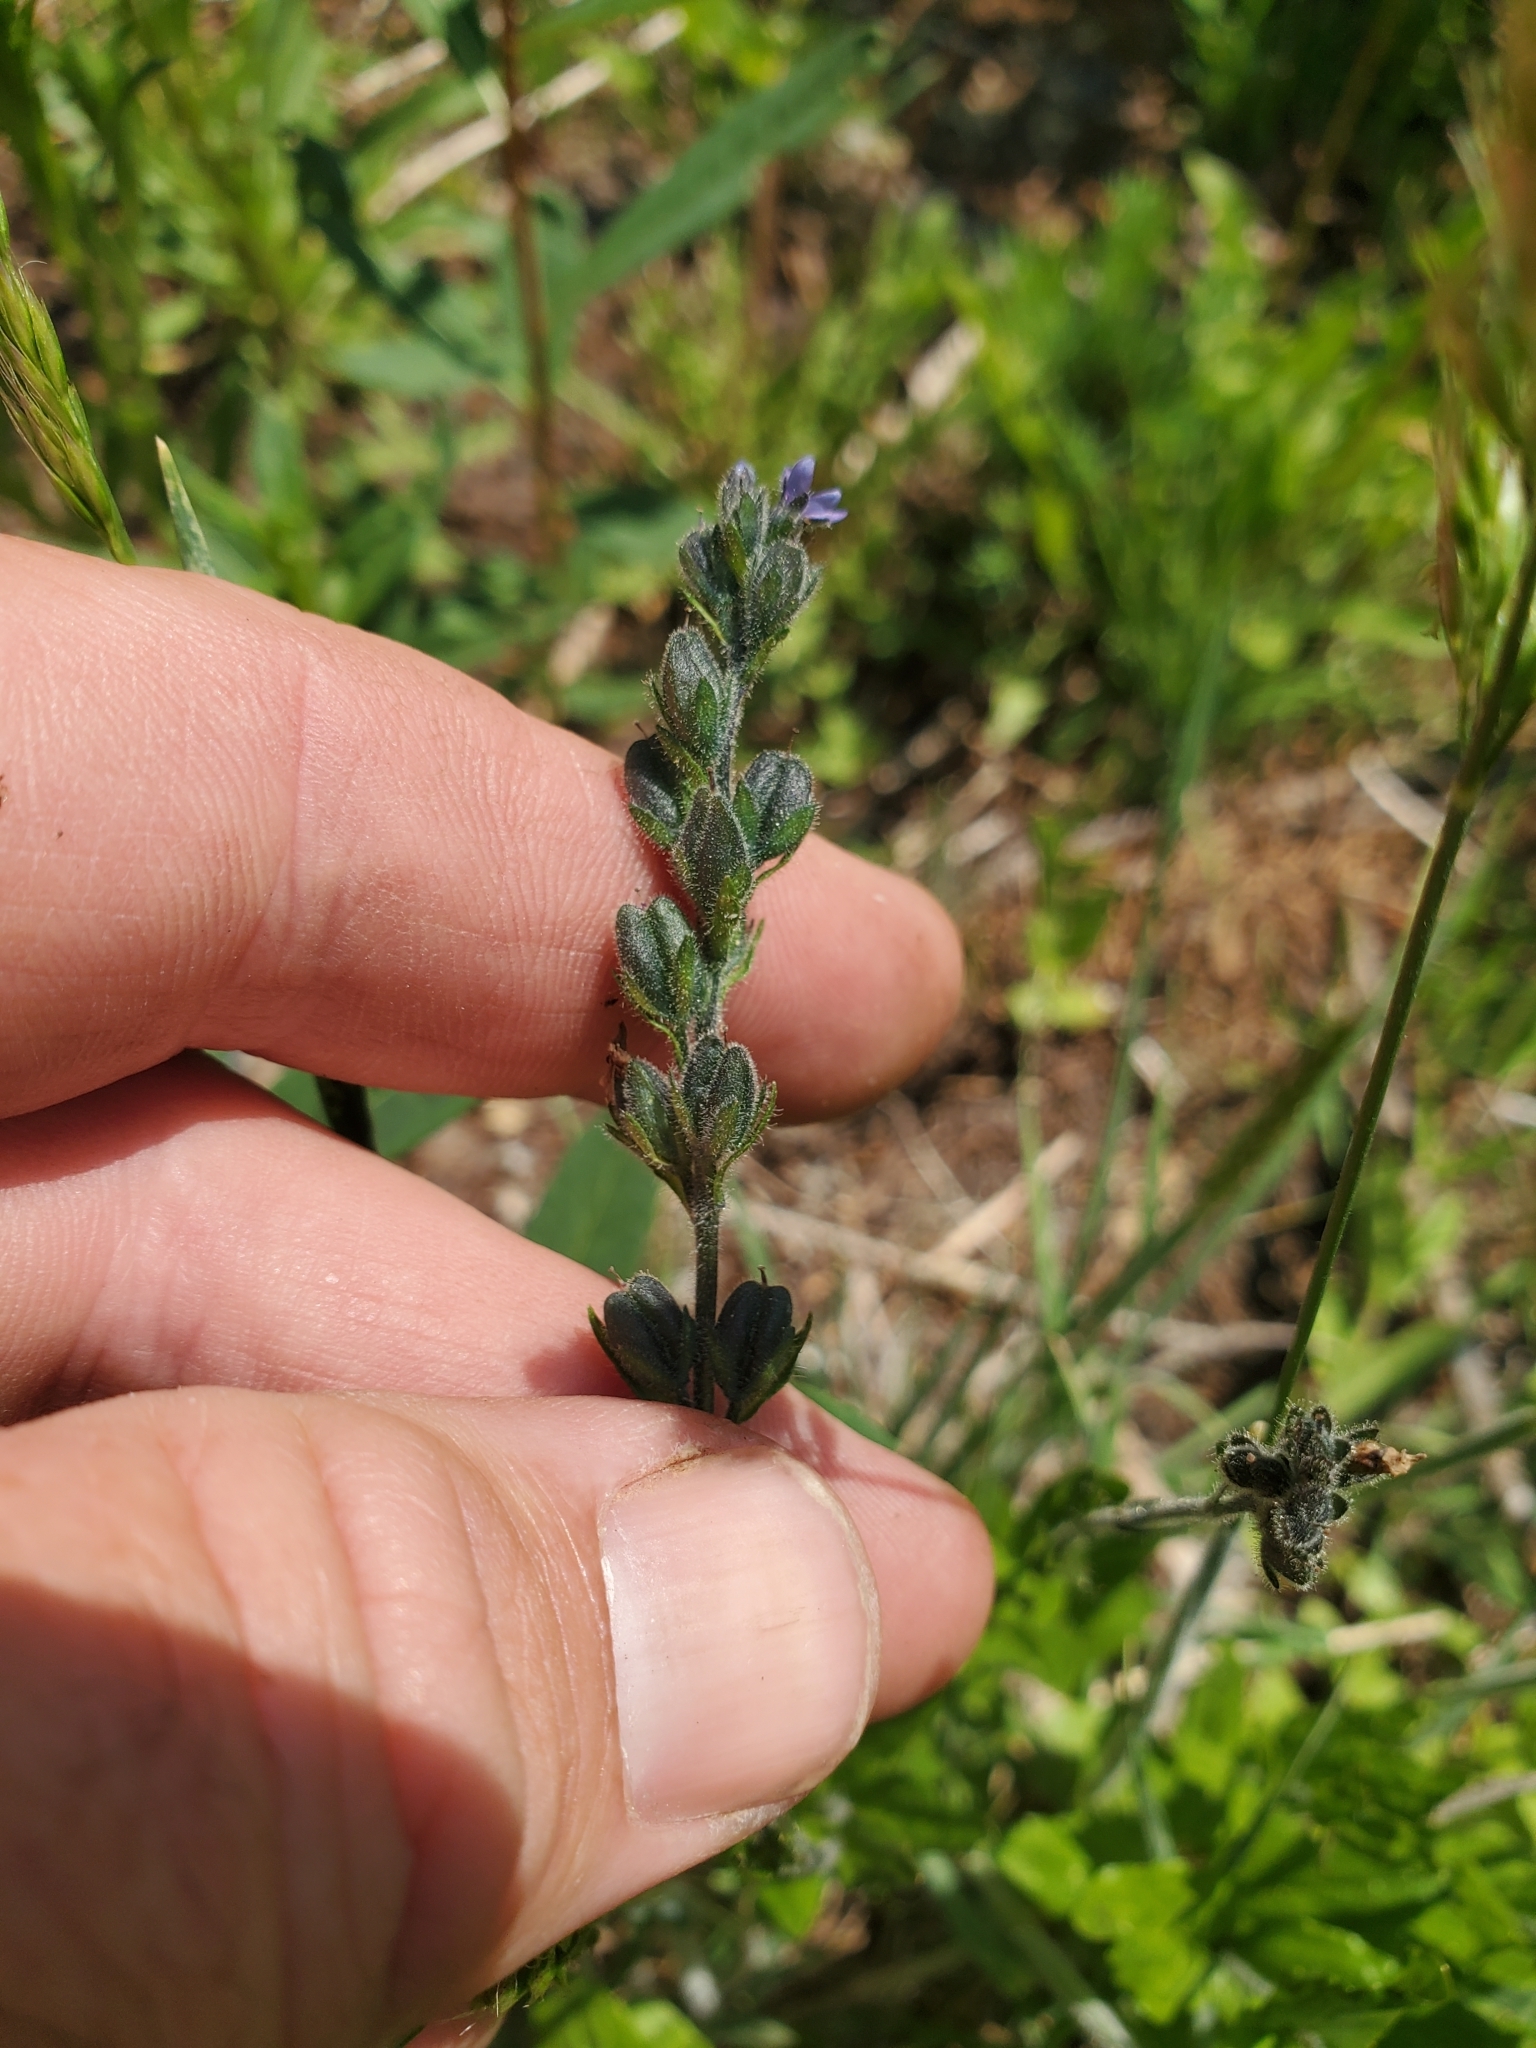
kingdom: Plantae
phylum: Tracheophyta
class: Magnoliopsida
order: Lamiales
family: Plantaginaceae
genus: Veronica
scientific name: Veronica wormskjoldii
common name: American alpine speedwell
